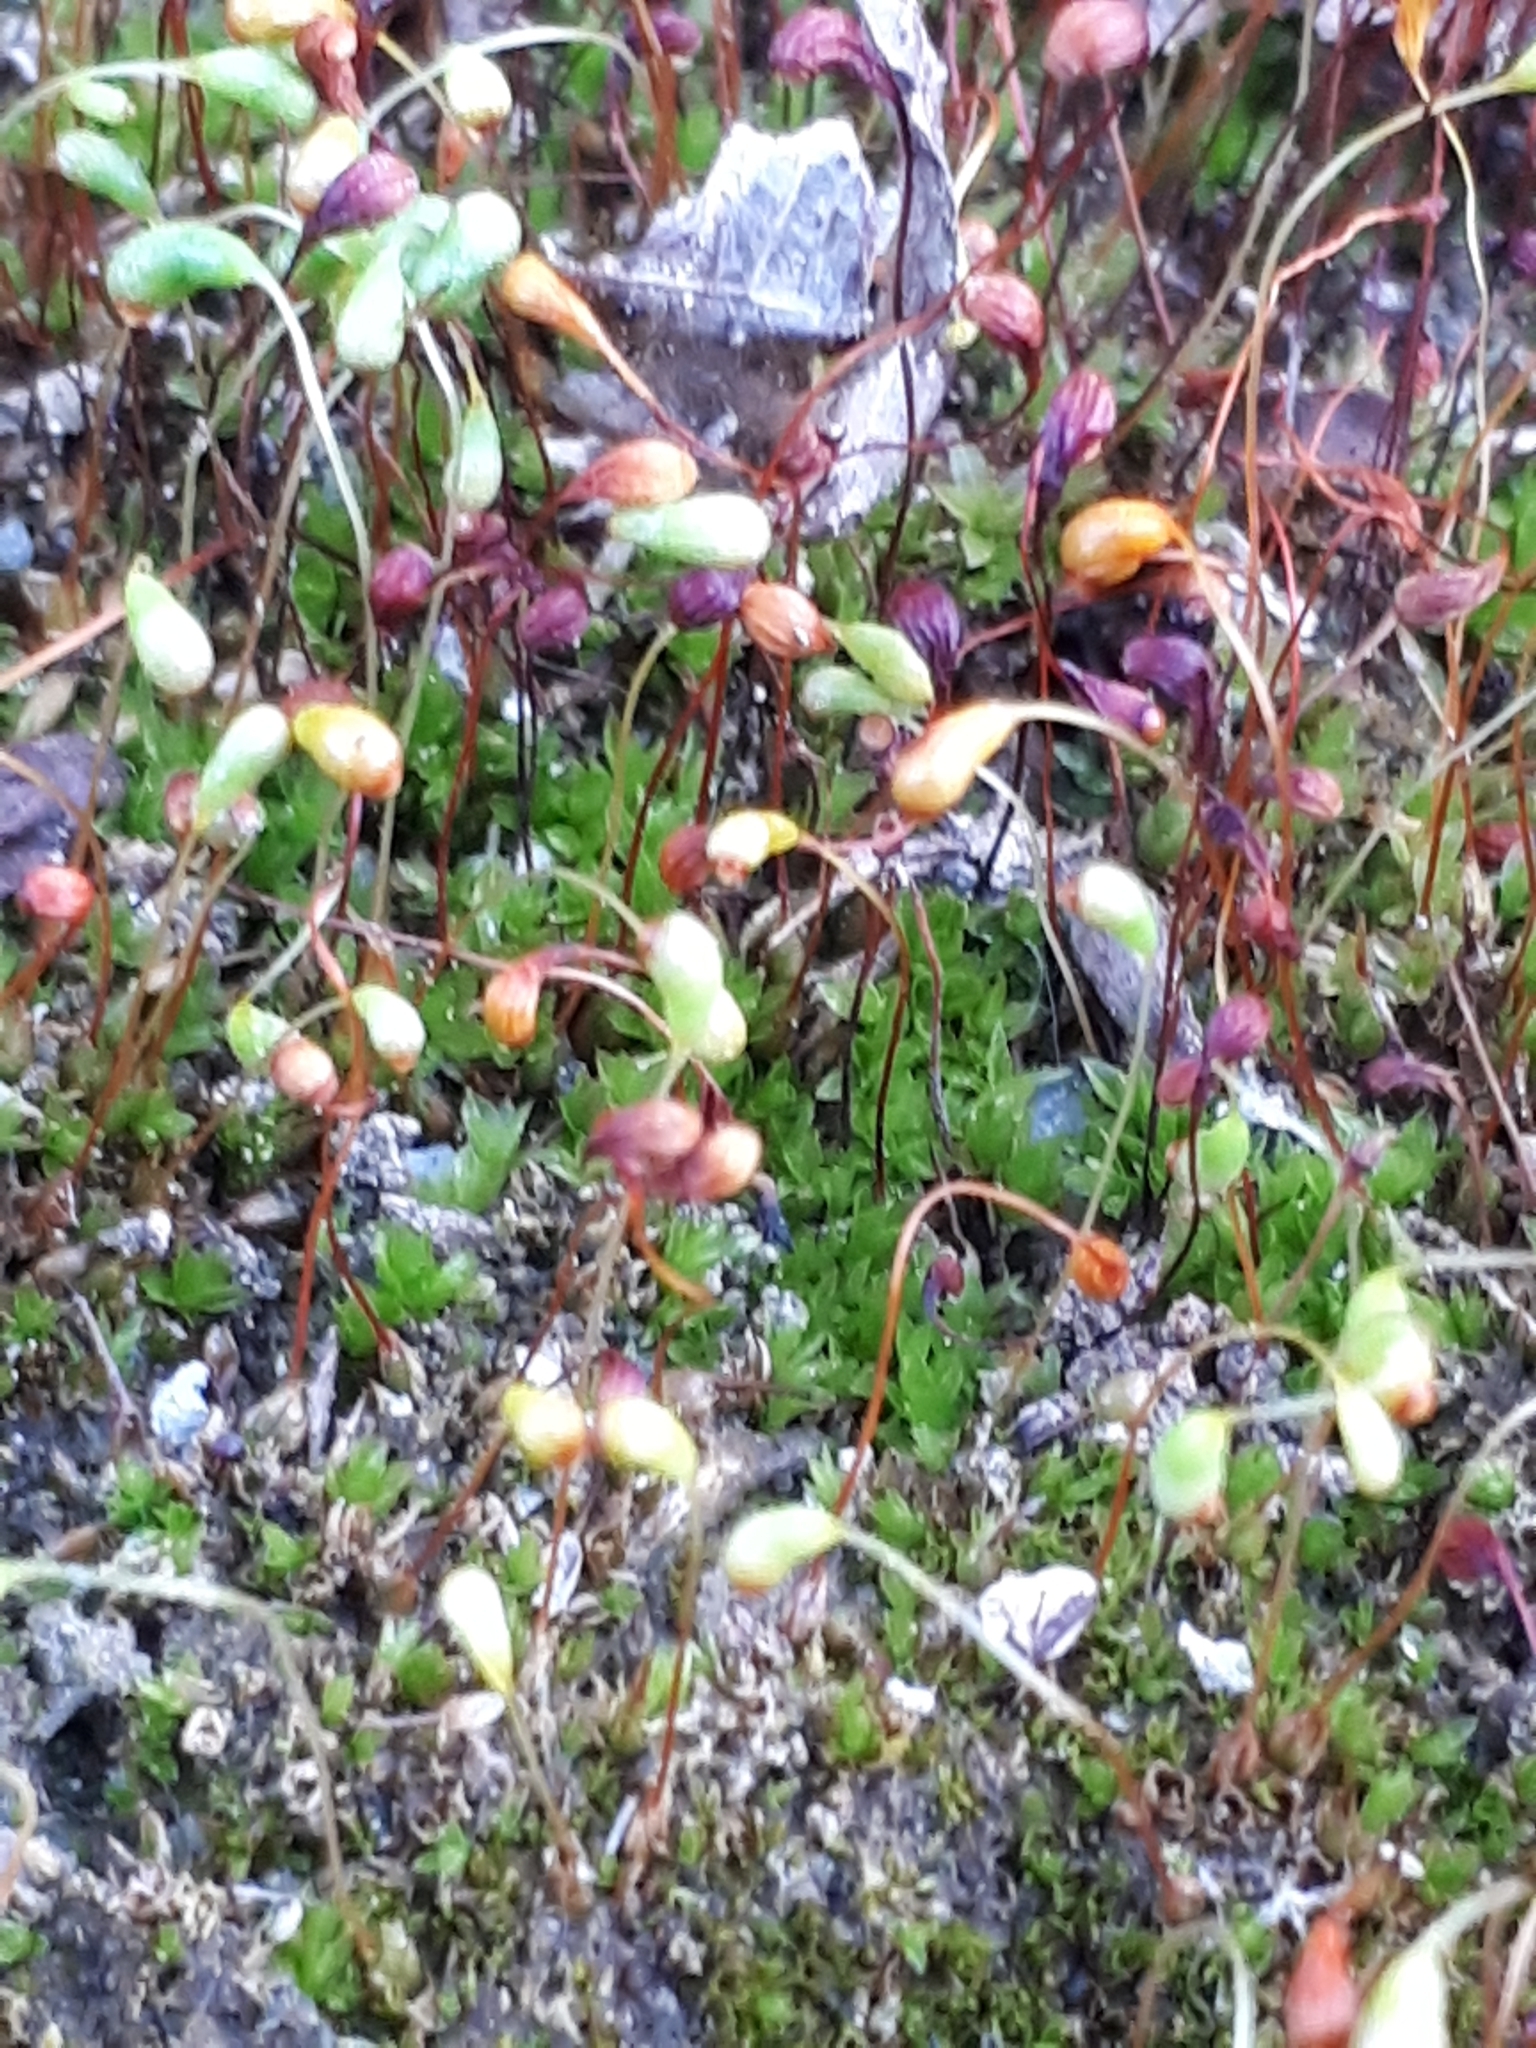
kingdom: Plantae
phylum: Bryophyta
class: Bryopsida
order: Funariales
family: Funariaceae
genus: Funaria
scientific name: Funaria hygrometrica
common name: Common cord moss
